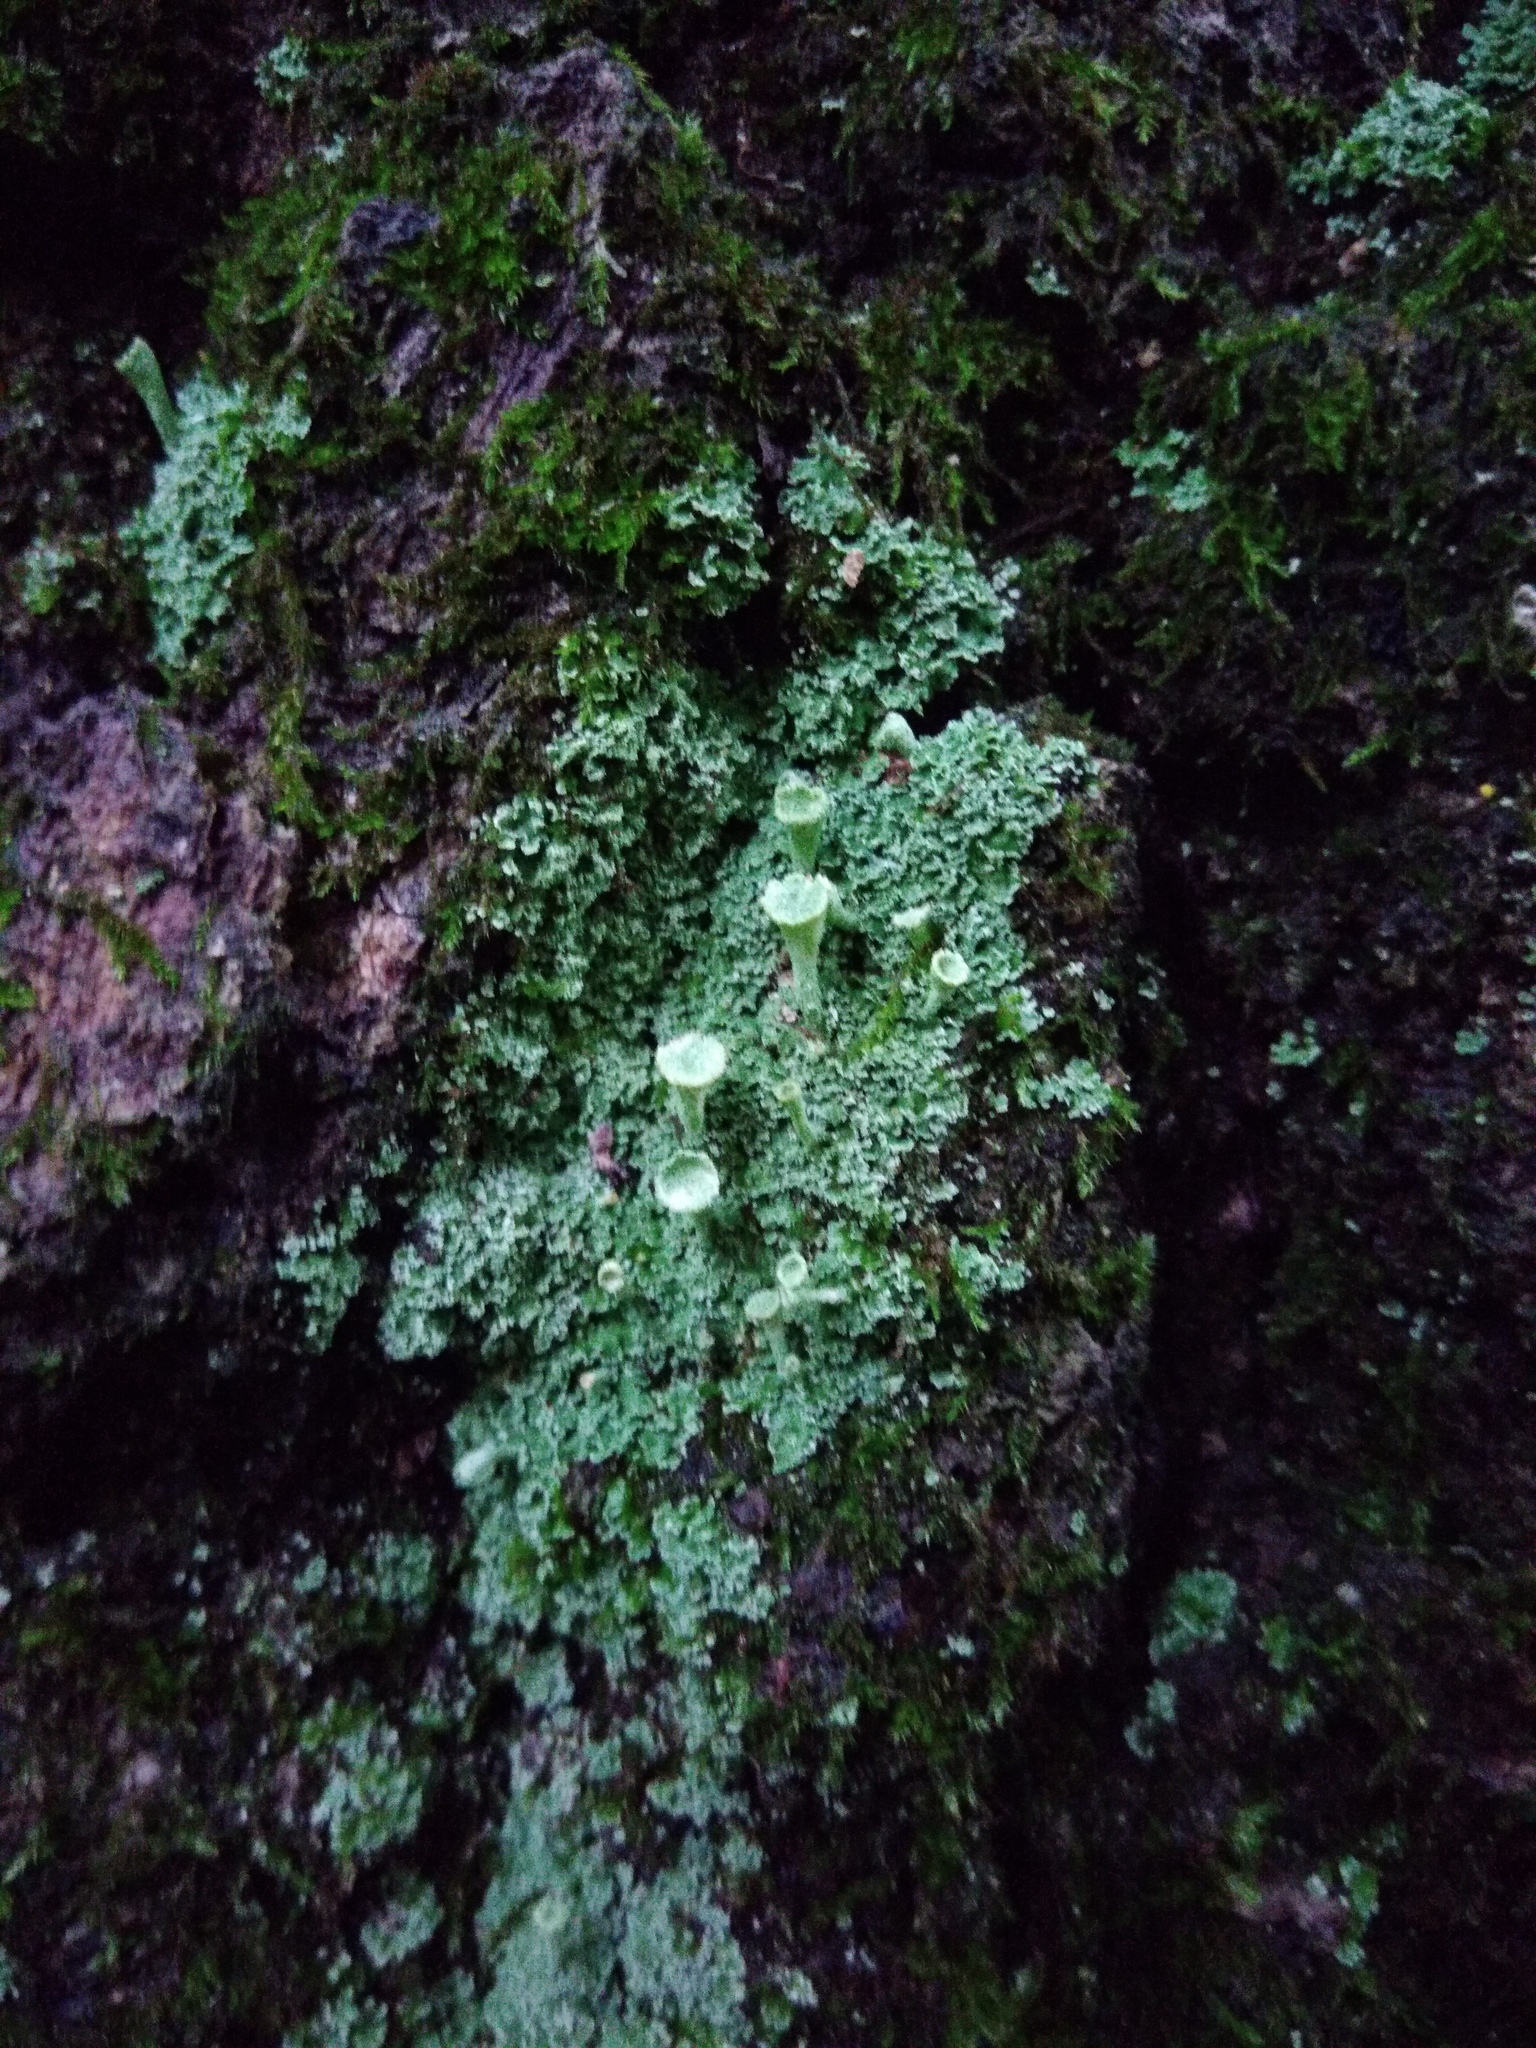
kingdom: Fungi
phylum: Ascomycota
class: Lecanoromycetes
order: Lecanorales
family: Cladoniaceae
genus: Cladonia
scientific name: Cladonia fimbriata
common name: Powdered trumpet lichen
